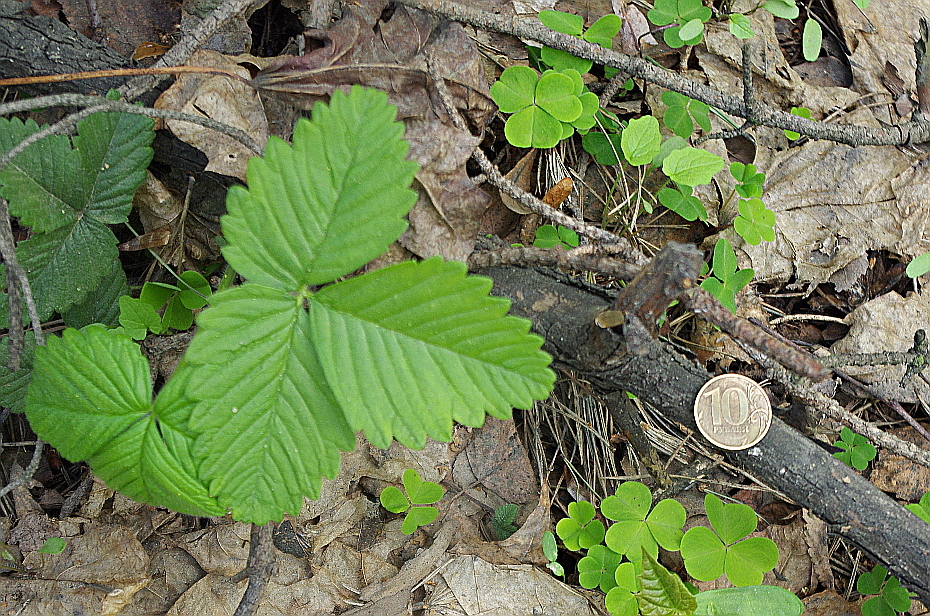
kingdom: Plantae
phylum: Tracheophyta
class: Magnoliopsida
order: Rosales
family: Rosaceae
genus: Fragaria
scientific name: Fragaria moschata
